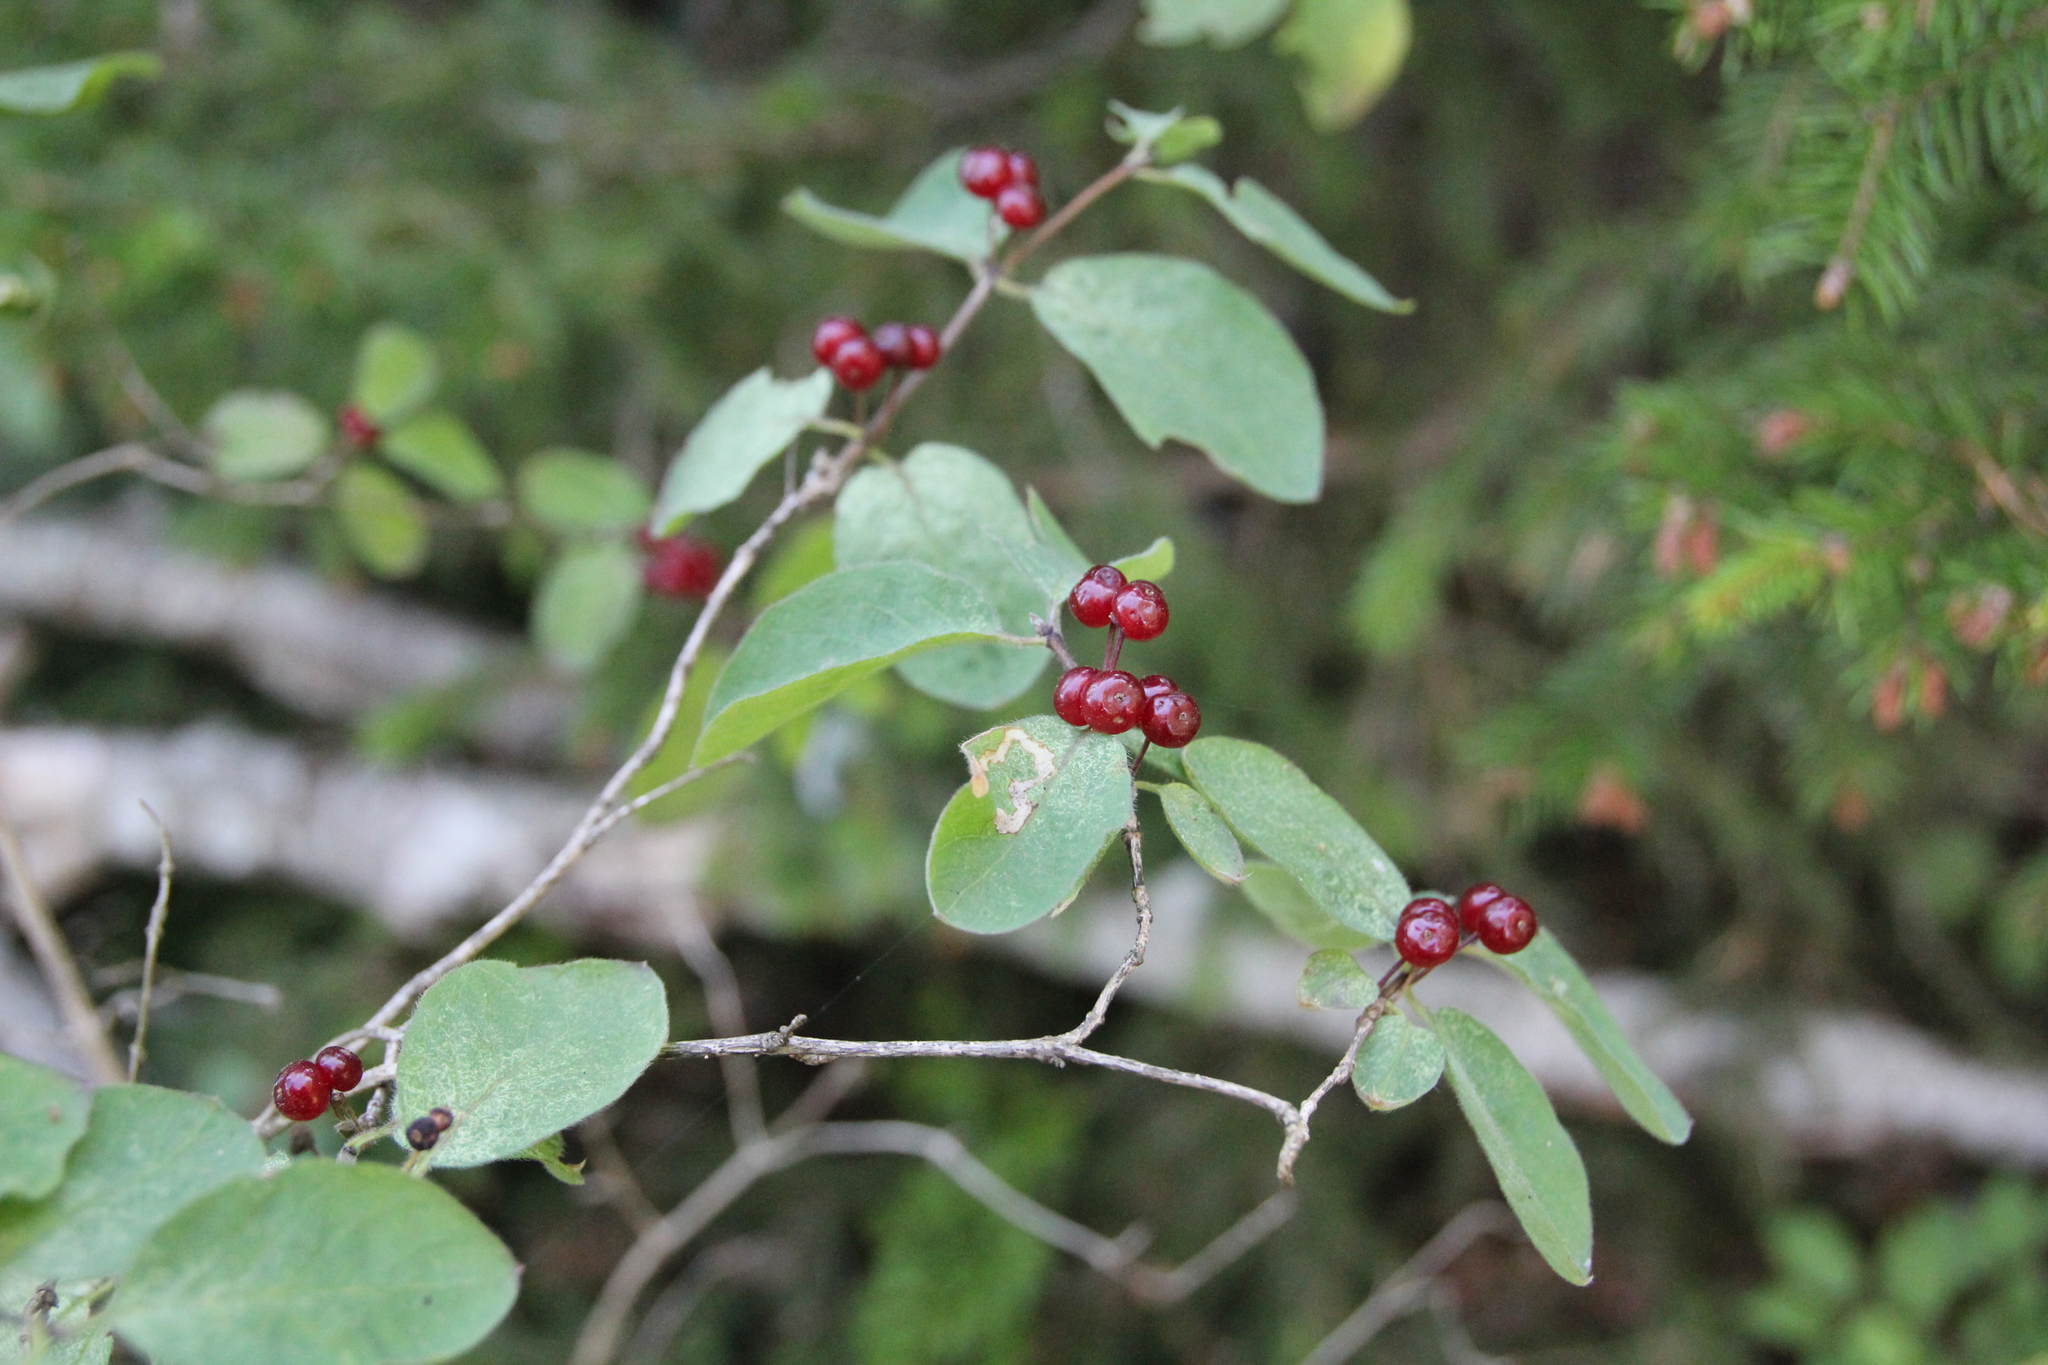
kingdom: Plantae
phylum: Tracheophyta
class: Magnoliopsida
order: Dipsacales
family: Caprifoliaceae
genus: Lonicera
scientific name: Lonicera xylosteum
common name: Fly honeysuckle
